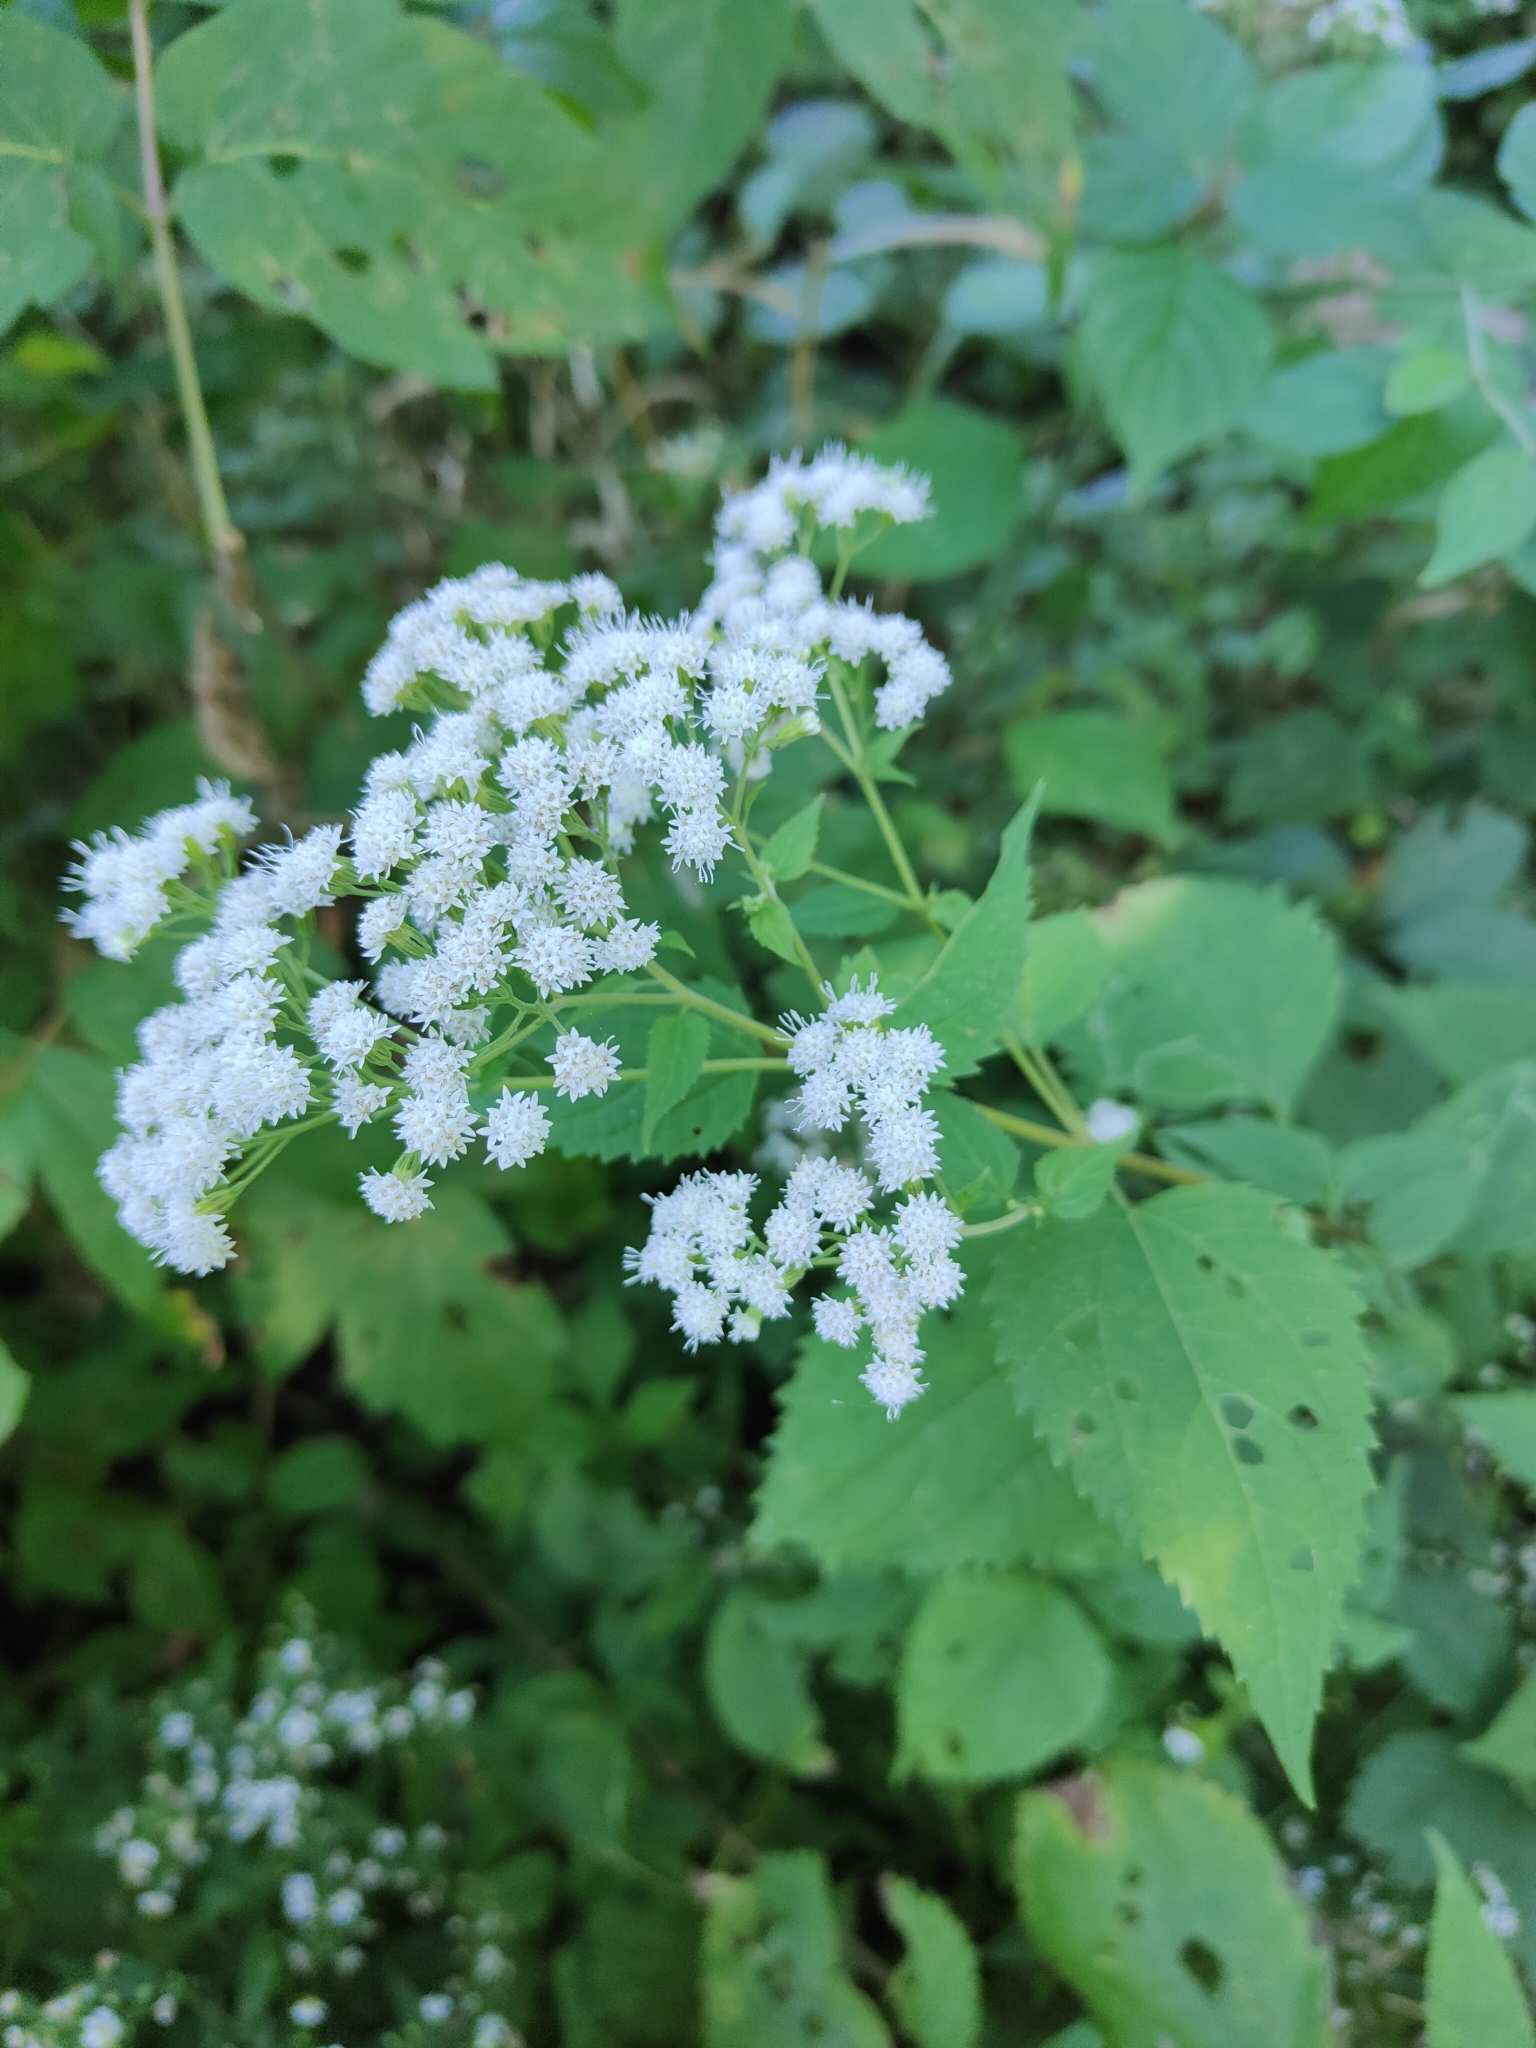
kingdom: Plantae
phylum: Tracheophyta
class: Magnoliopsida
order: Asterales
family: Asteraceae
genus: Ageratina
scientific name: Ageratina altissima
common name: White snakeroot
